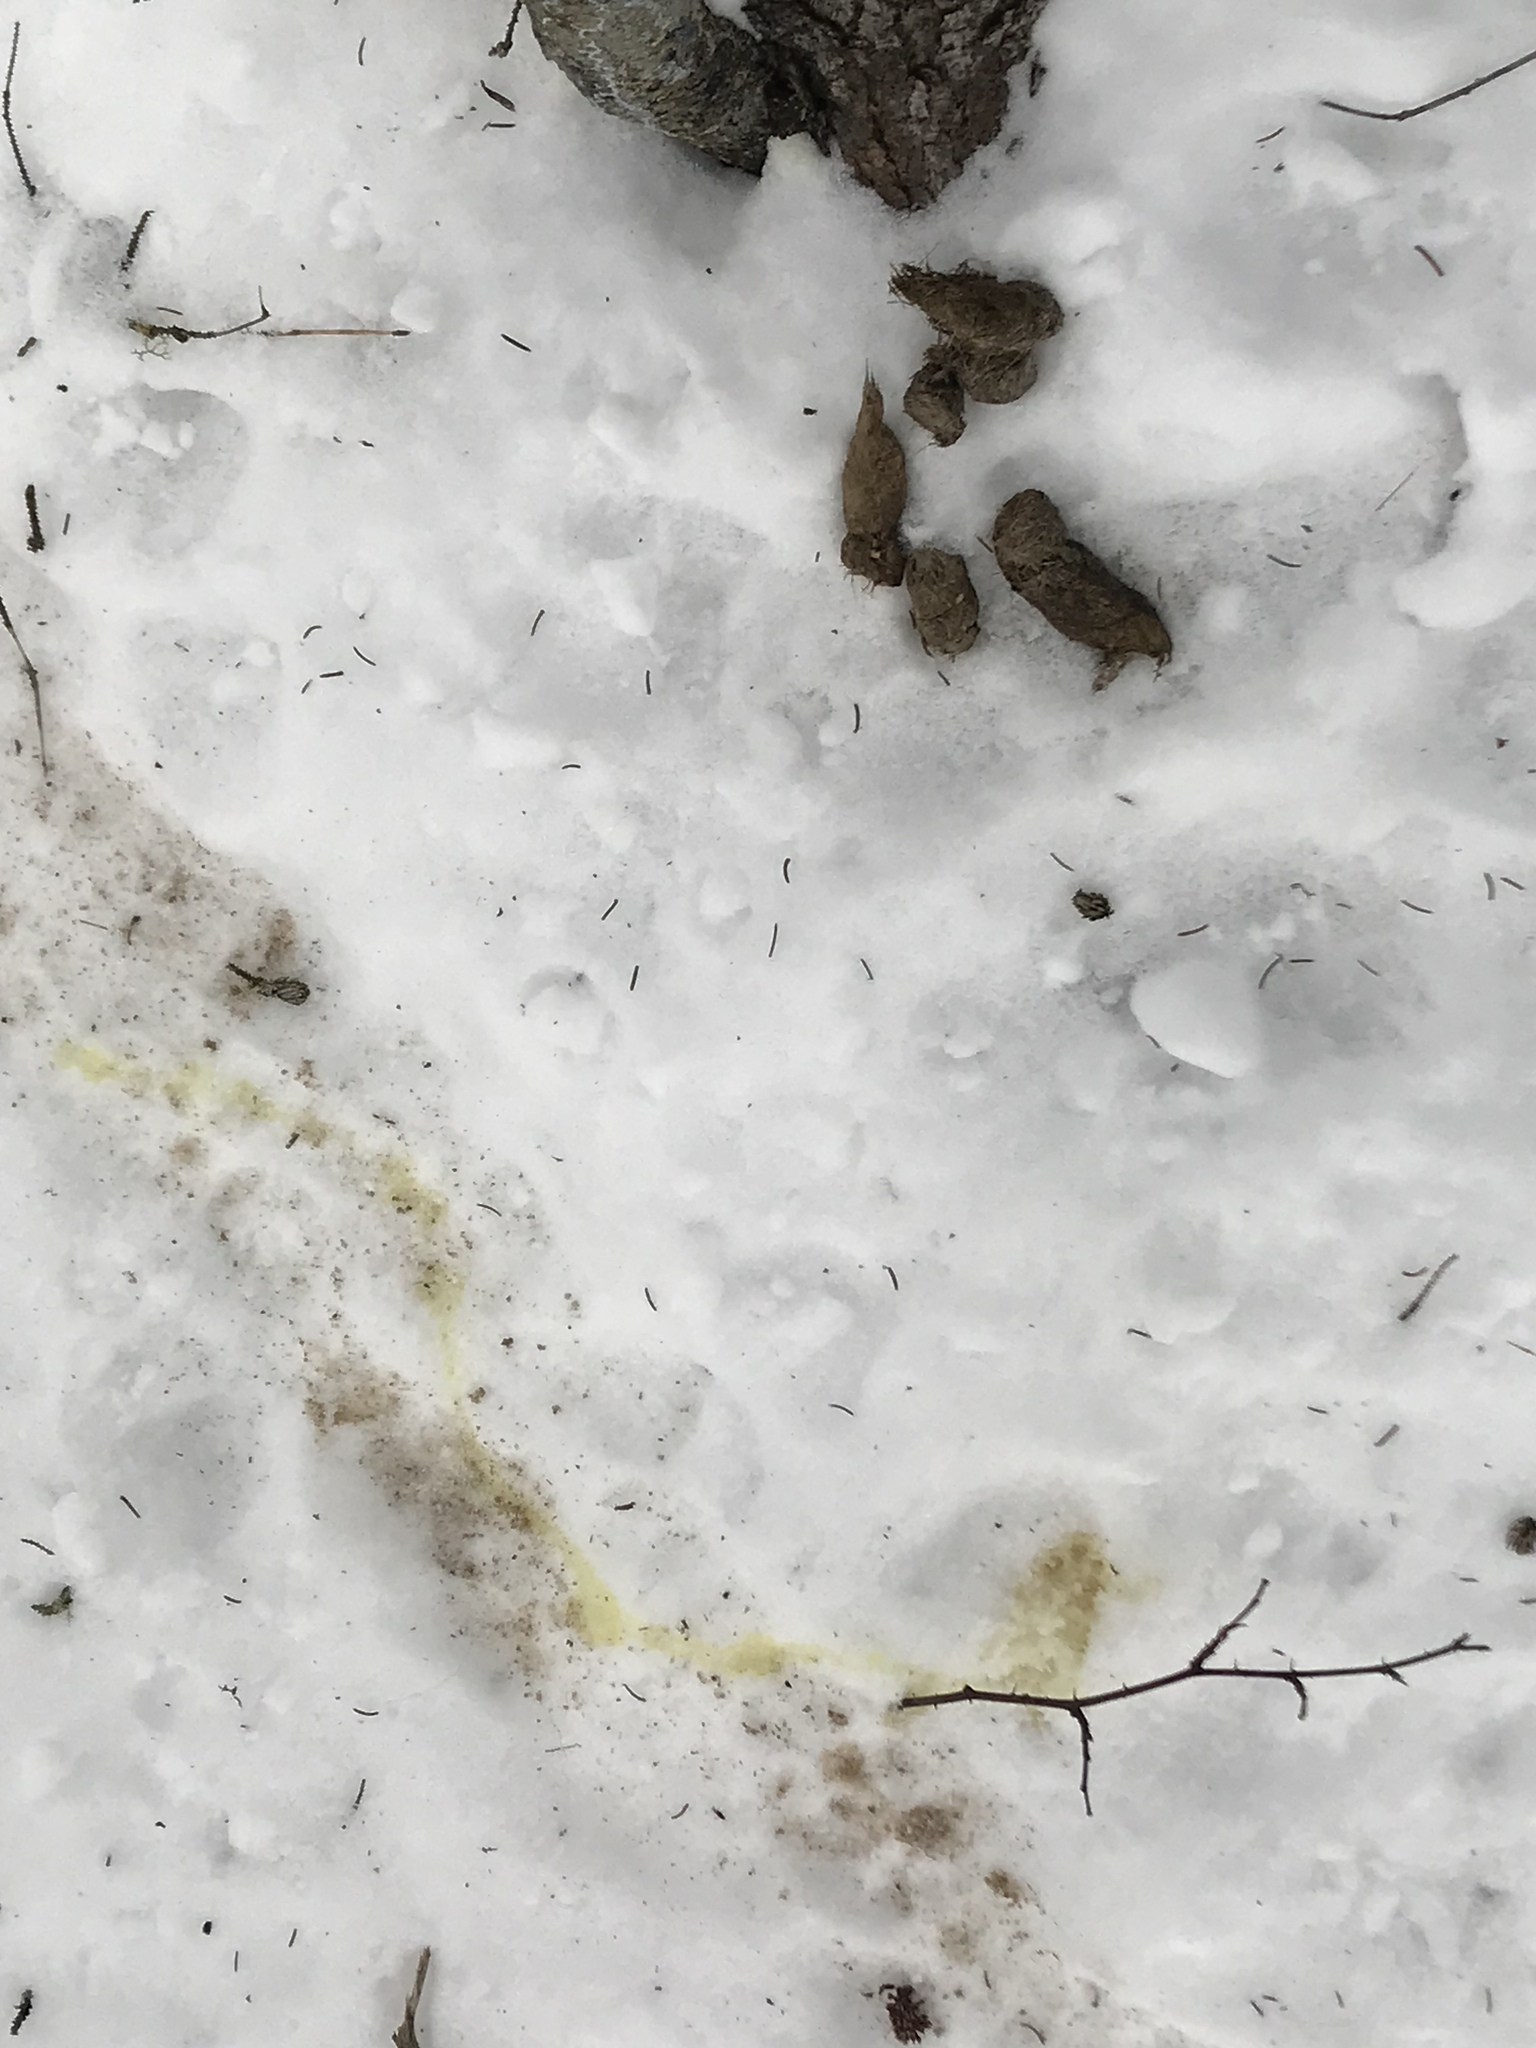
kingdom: Animalia
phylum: Chordata
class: Mammalia
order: Rodentia
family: Erethizontidae
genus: Erethizon
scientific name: Erethizon dorsatus
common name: North american porcupine
